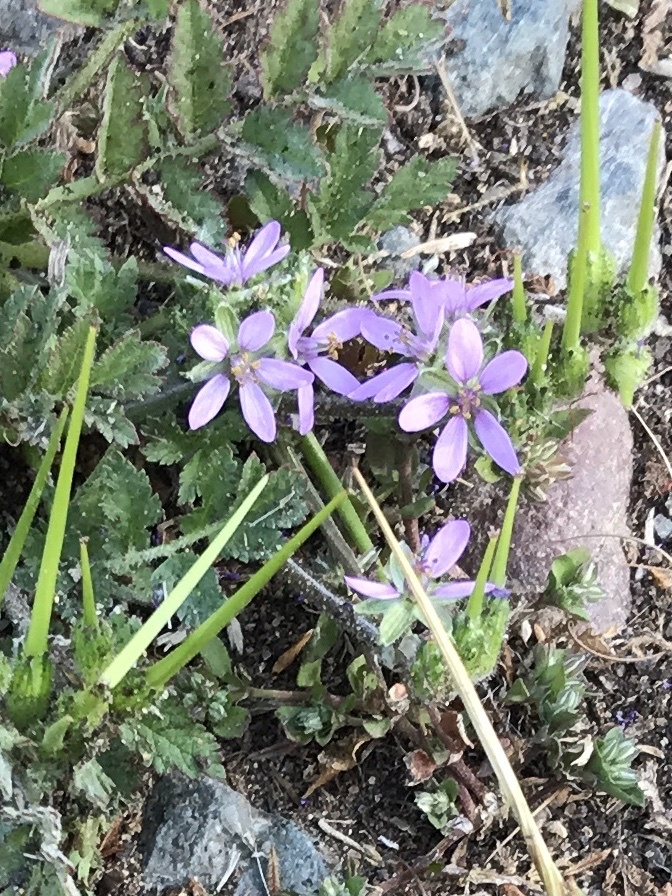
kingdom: Plantae
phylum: Tracheophyta
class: Magnoliopsida
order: Geraniales
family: Geraniaceae
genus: Erodium
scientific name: Erodium moschatum
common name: Musk stork's-bill
